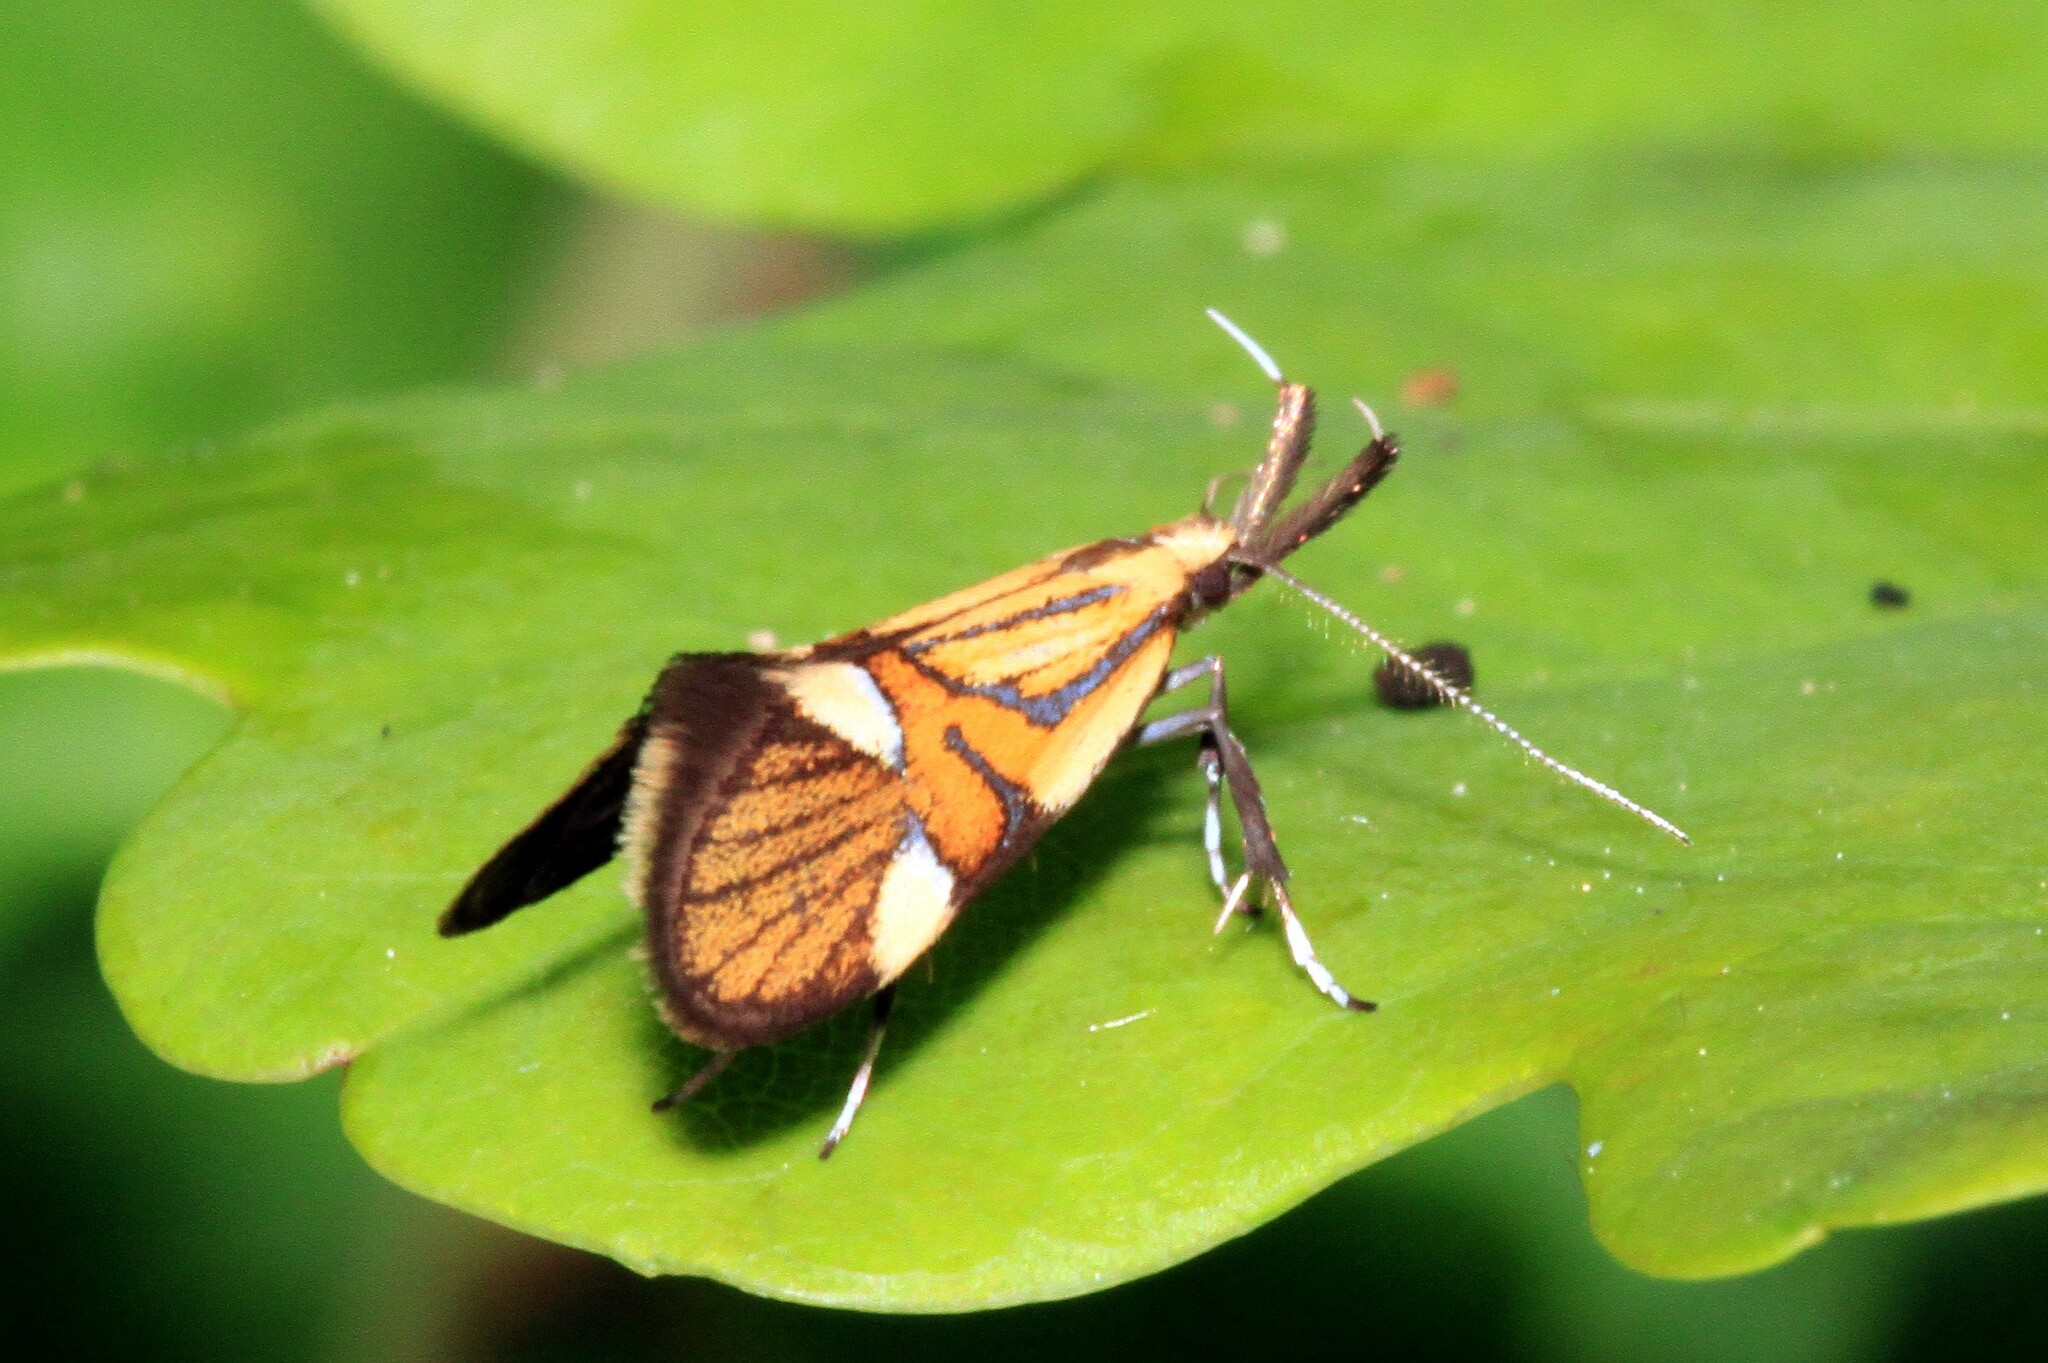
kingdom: Animalia
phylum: Arthropoda
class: Insecta
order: Lepidoptera
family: Oecophoridae
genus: Oecophora
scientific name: Oecophora Alabonia geoffrella
